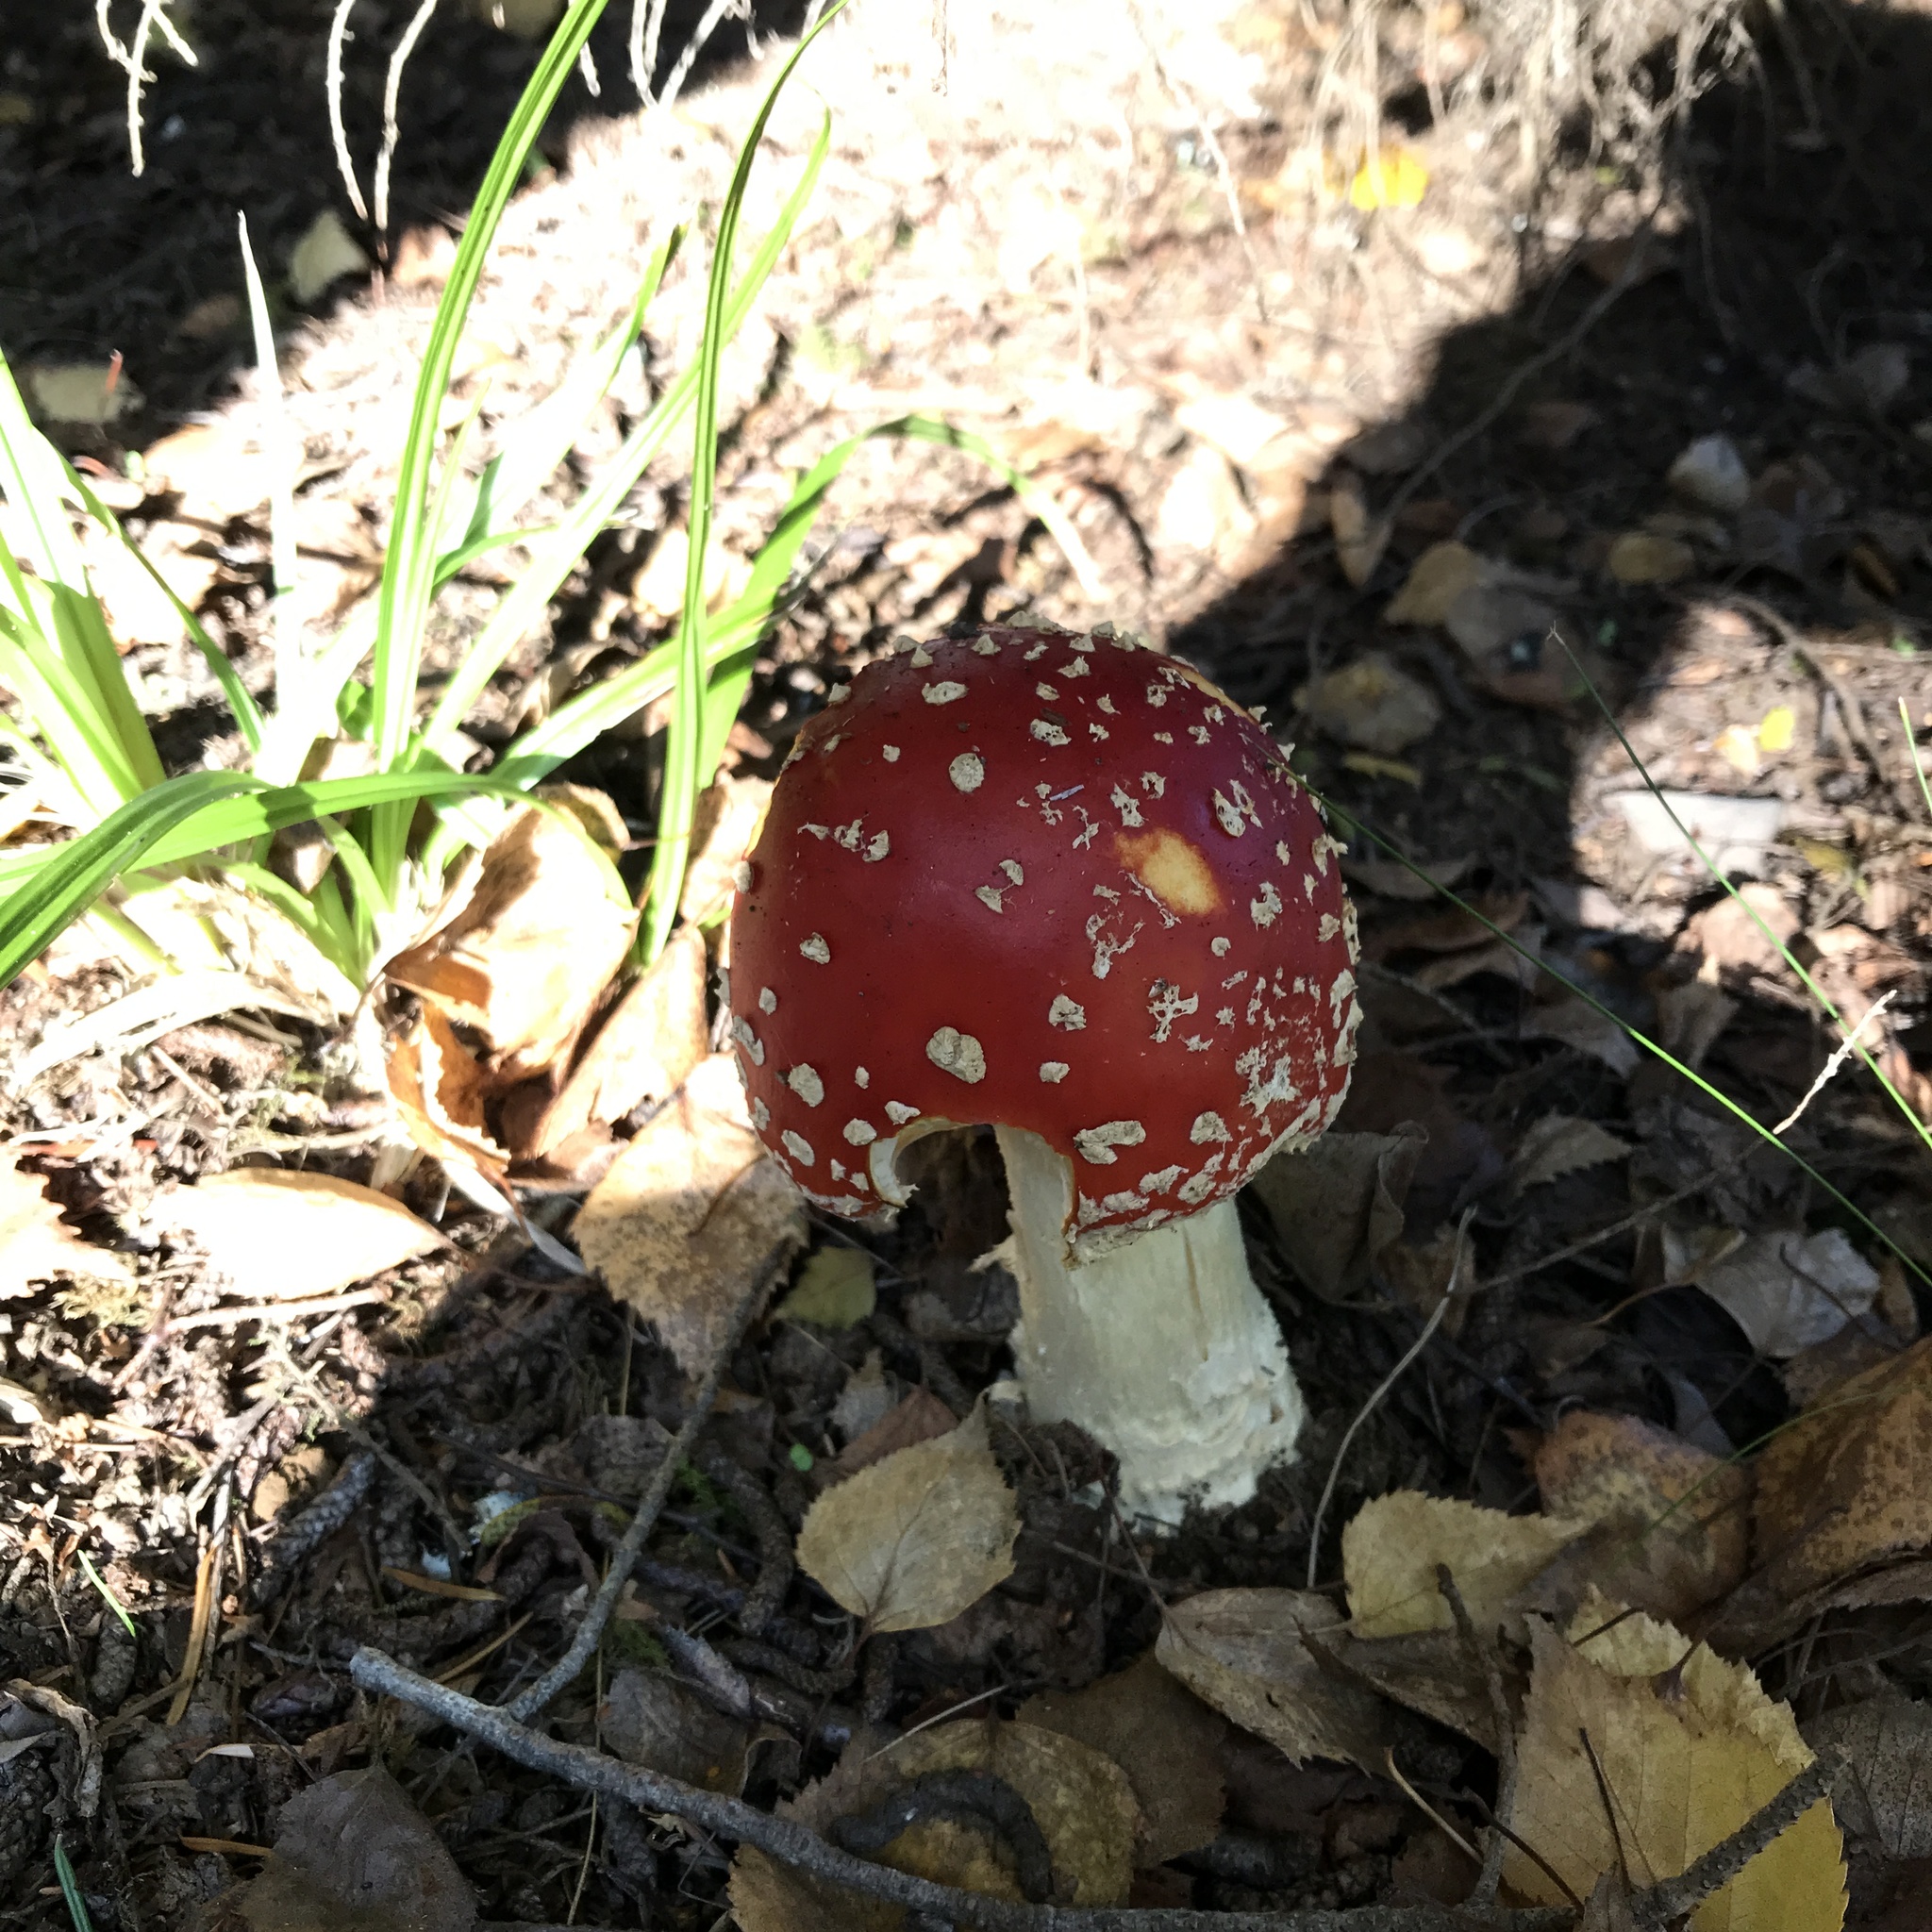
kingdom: Fungi
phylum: Basidiomycota
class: Agaricomycetes
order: Agaricales
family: Amanitaceae
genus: Amanita
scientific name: Amanita muscaria
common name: Fly agaric
